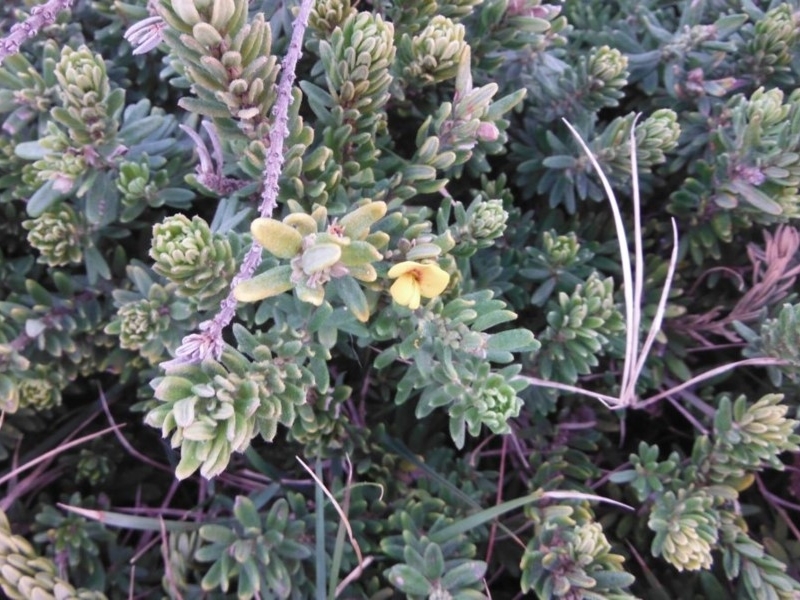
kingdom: Plantae
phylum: Tracheophyta
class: Magnoliopsida
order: Fabales
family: Fabaceae
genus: Aotus
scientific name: Aotus ericoides
